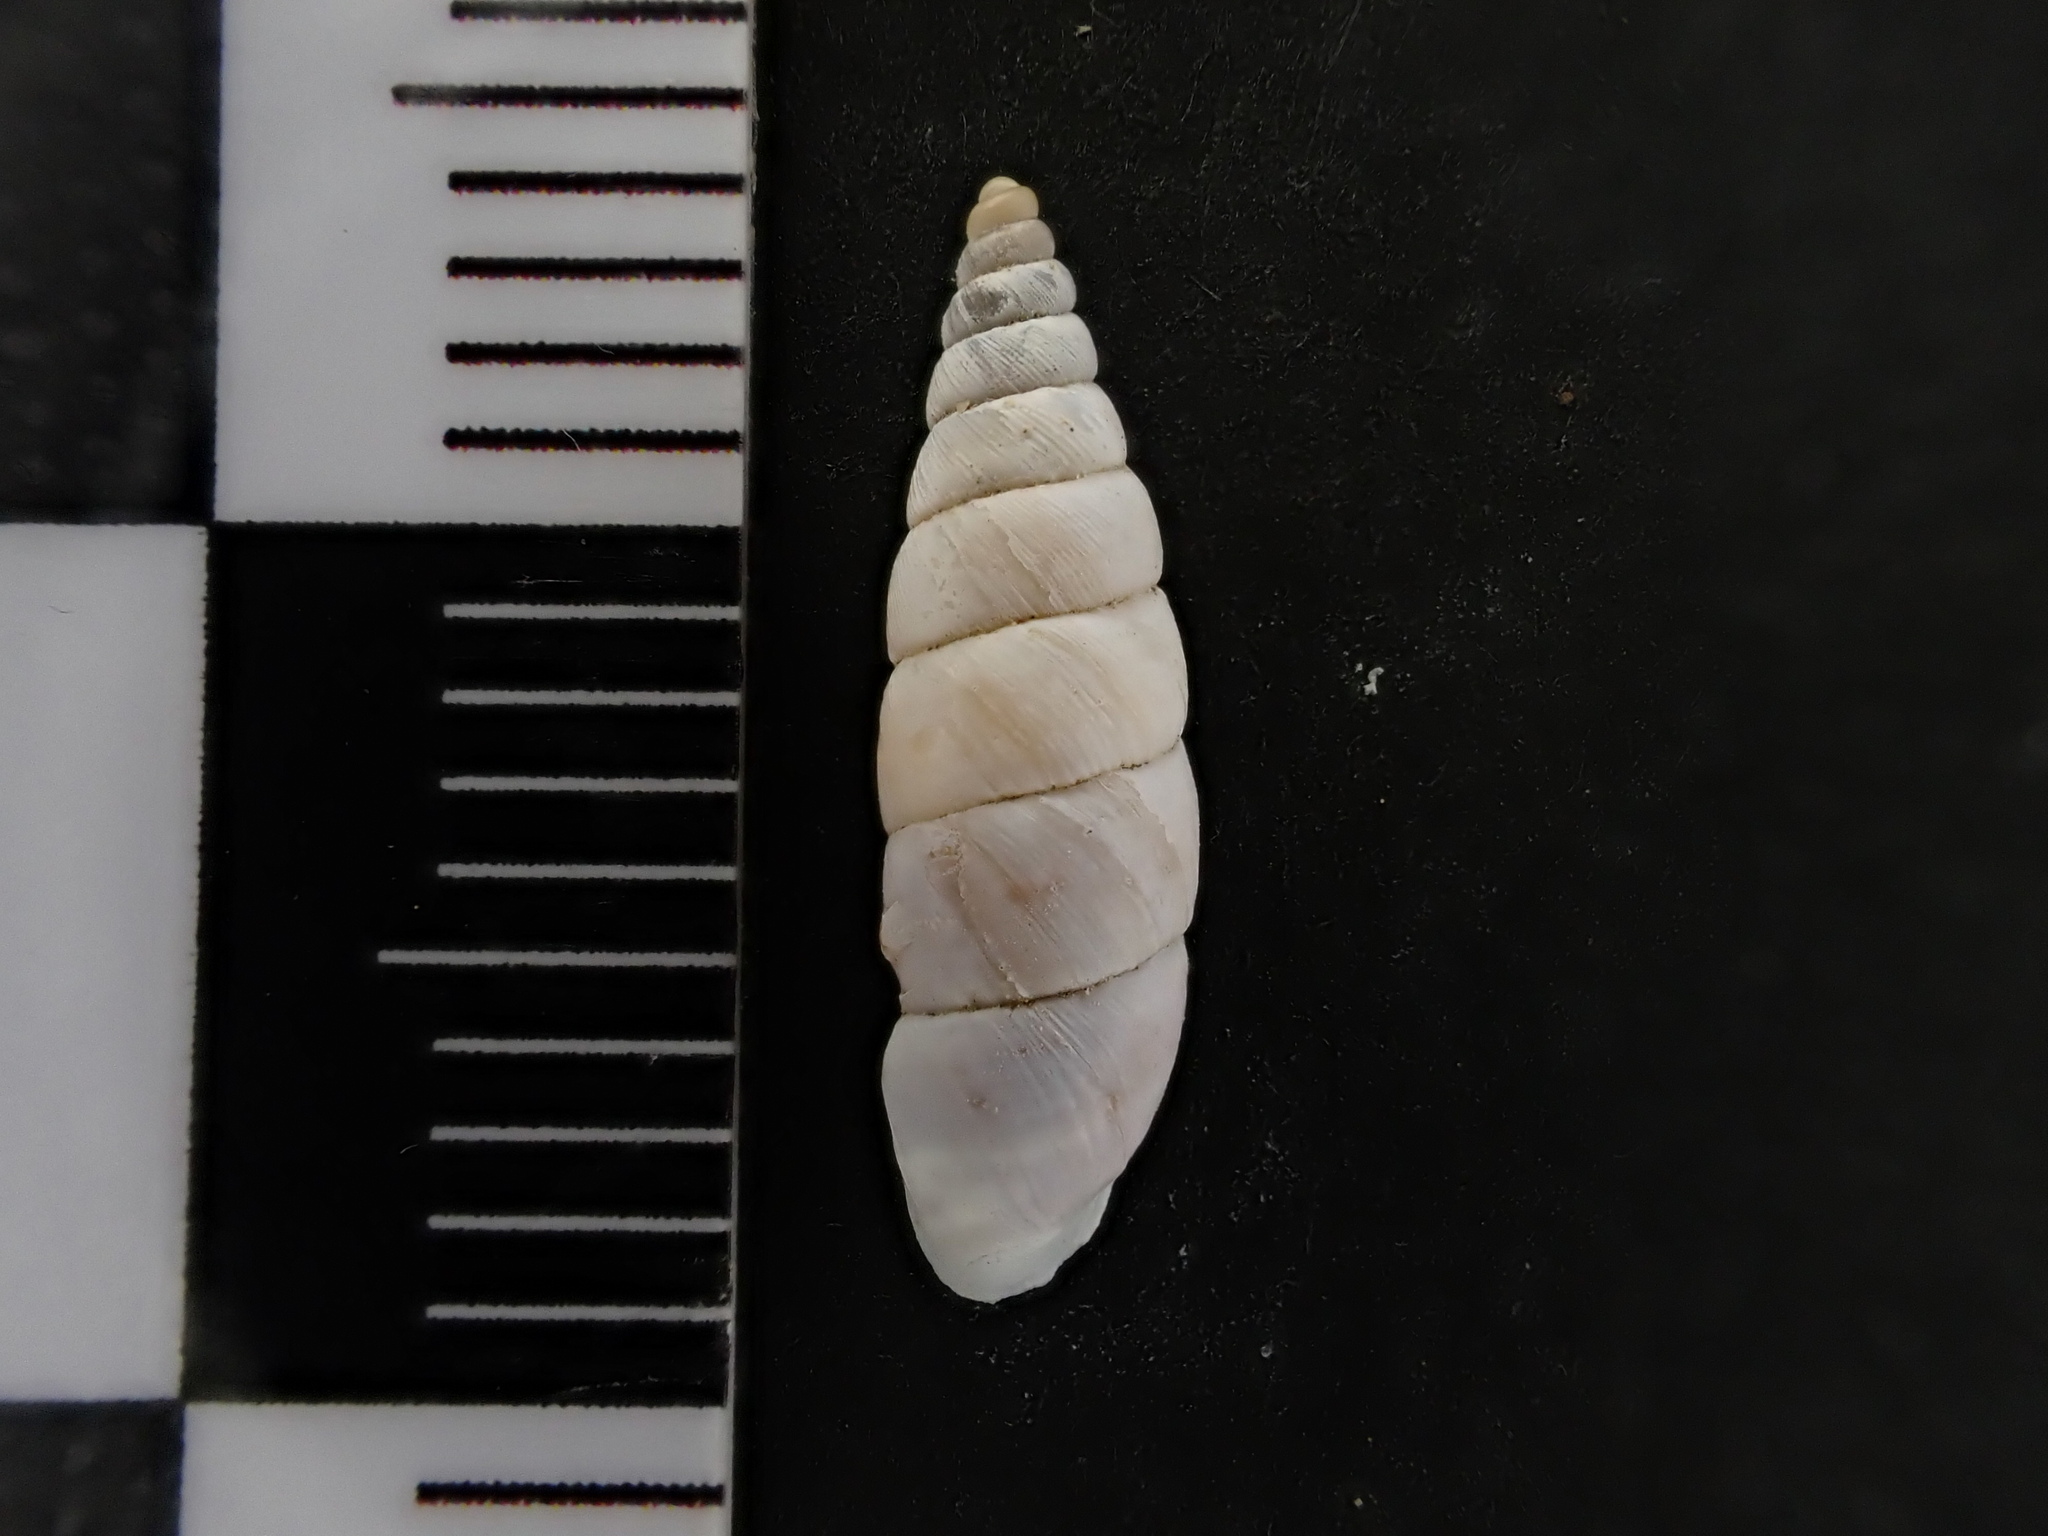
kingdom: Animalia
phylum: Mollusca
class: Gastropoda
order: Stylommatophora
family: Chondrinidae
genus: Solatopupa
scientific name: Solatopupa similis
